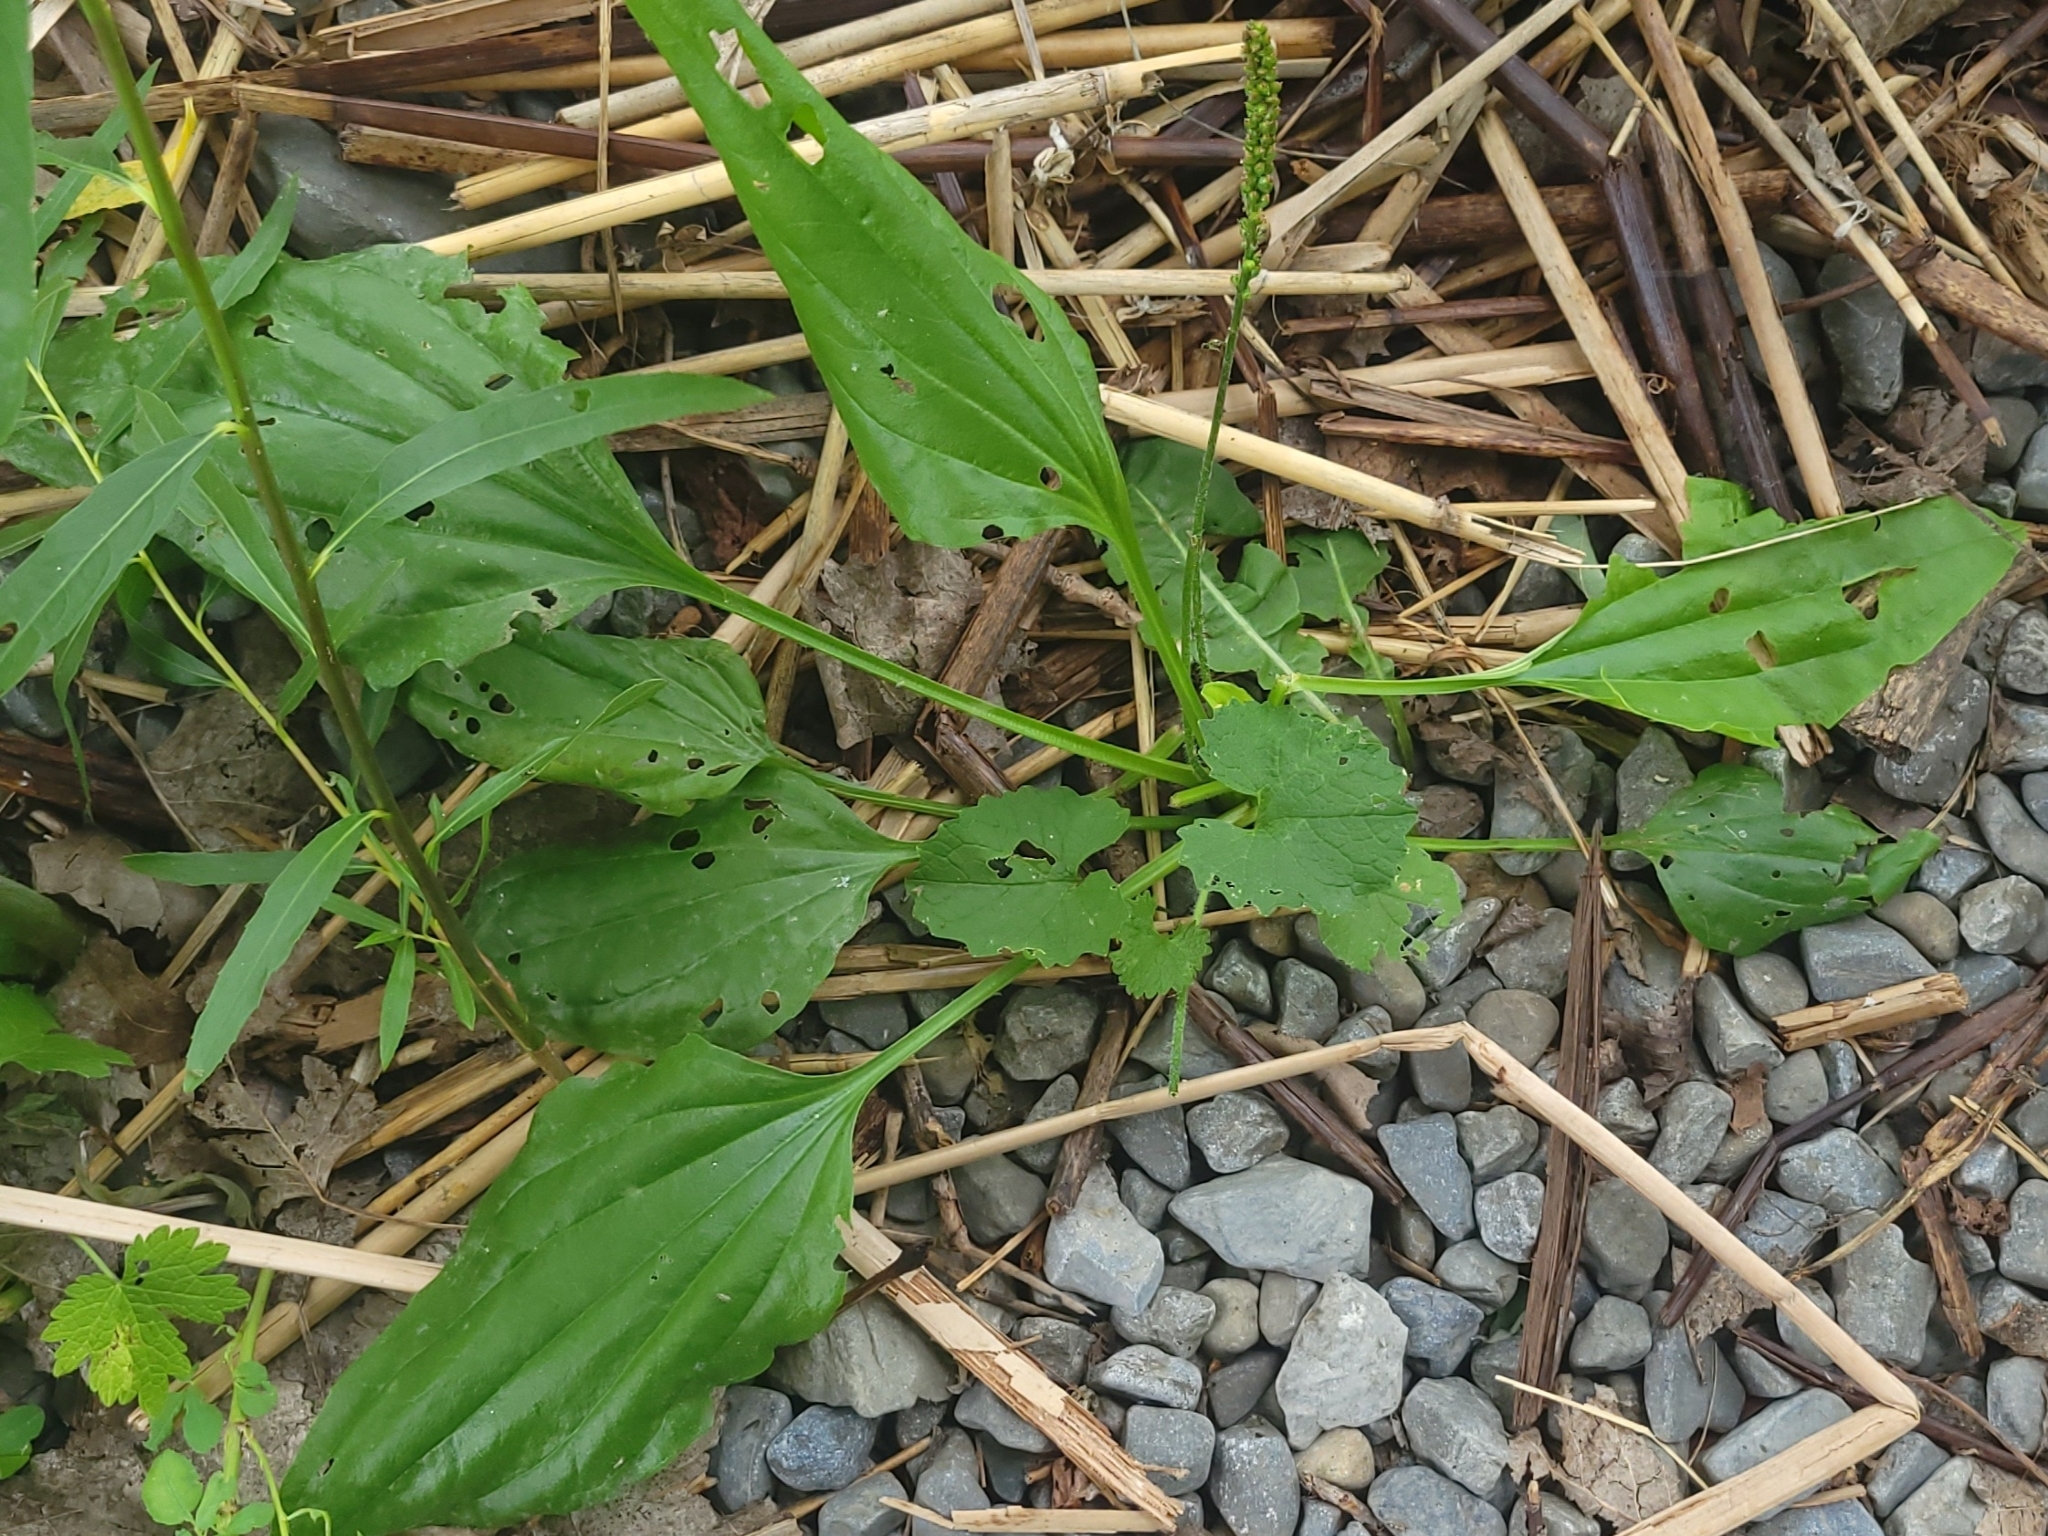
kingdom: Plantae
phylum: Tracheophyta
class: Magnoliopsida
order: Lamiales
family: Plantaginaceae
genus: Plantago
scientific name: Plantago major
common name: Common plantain
